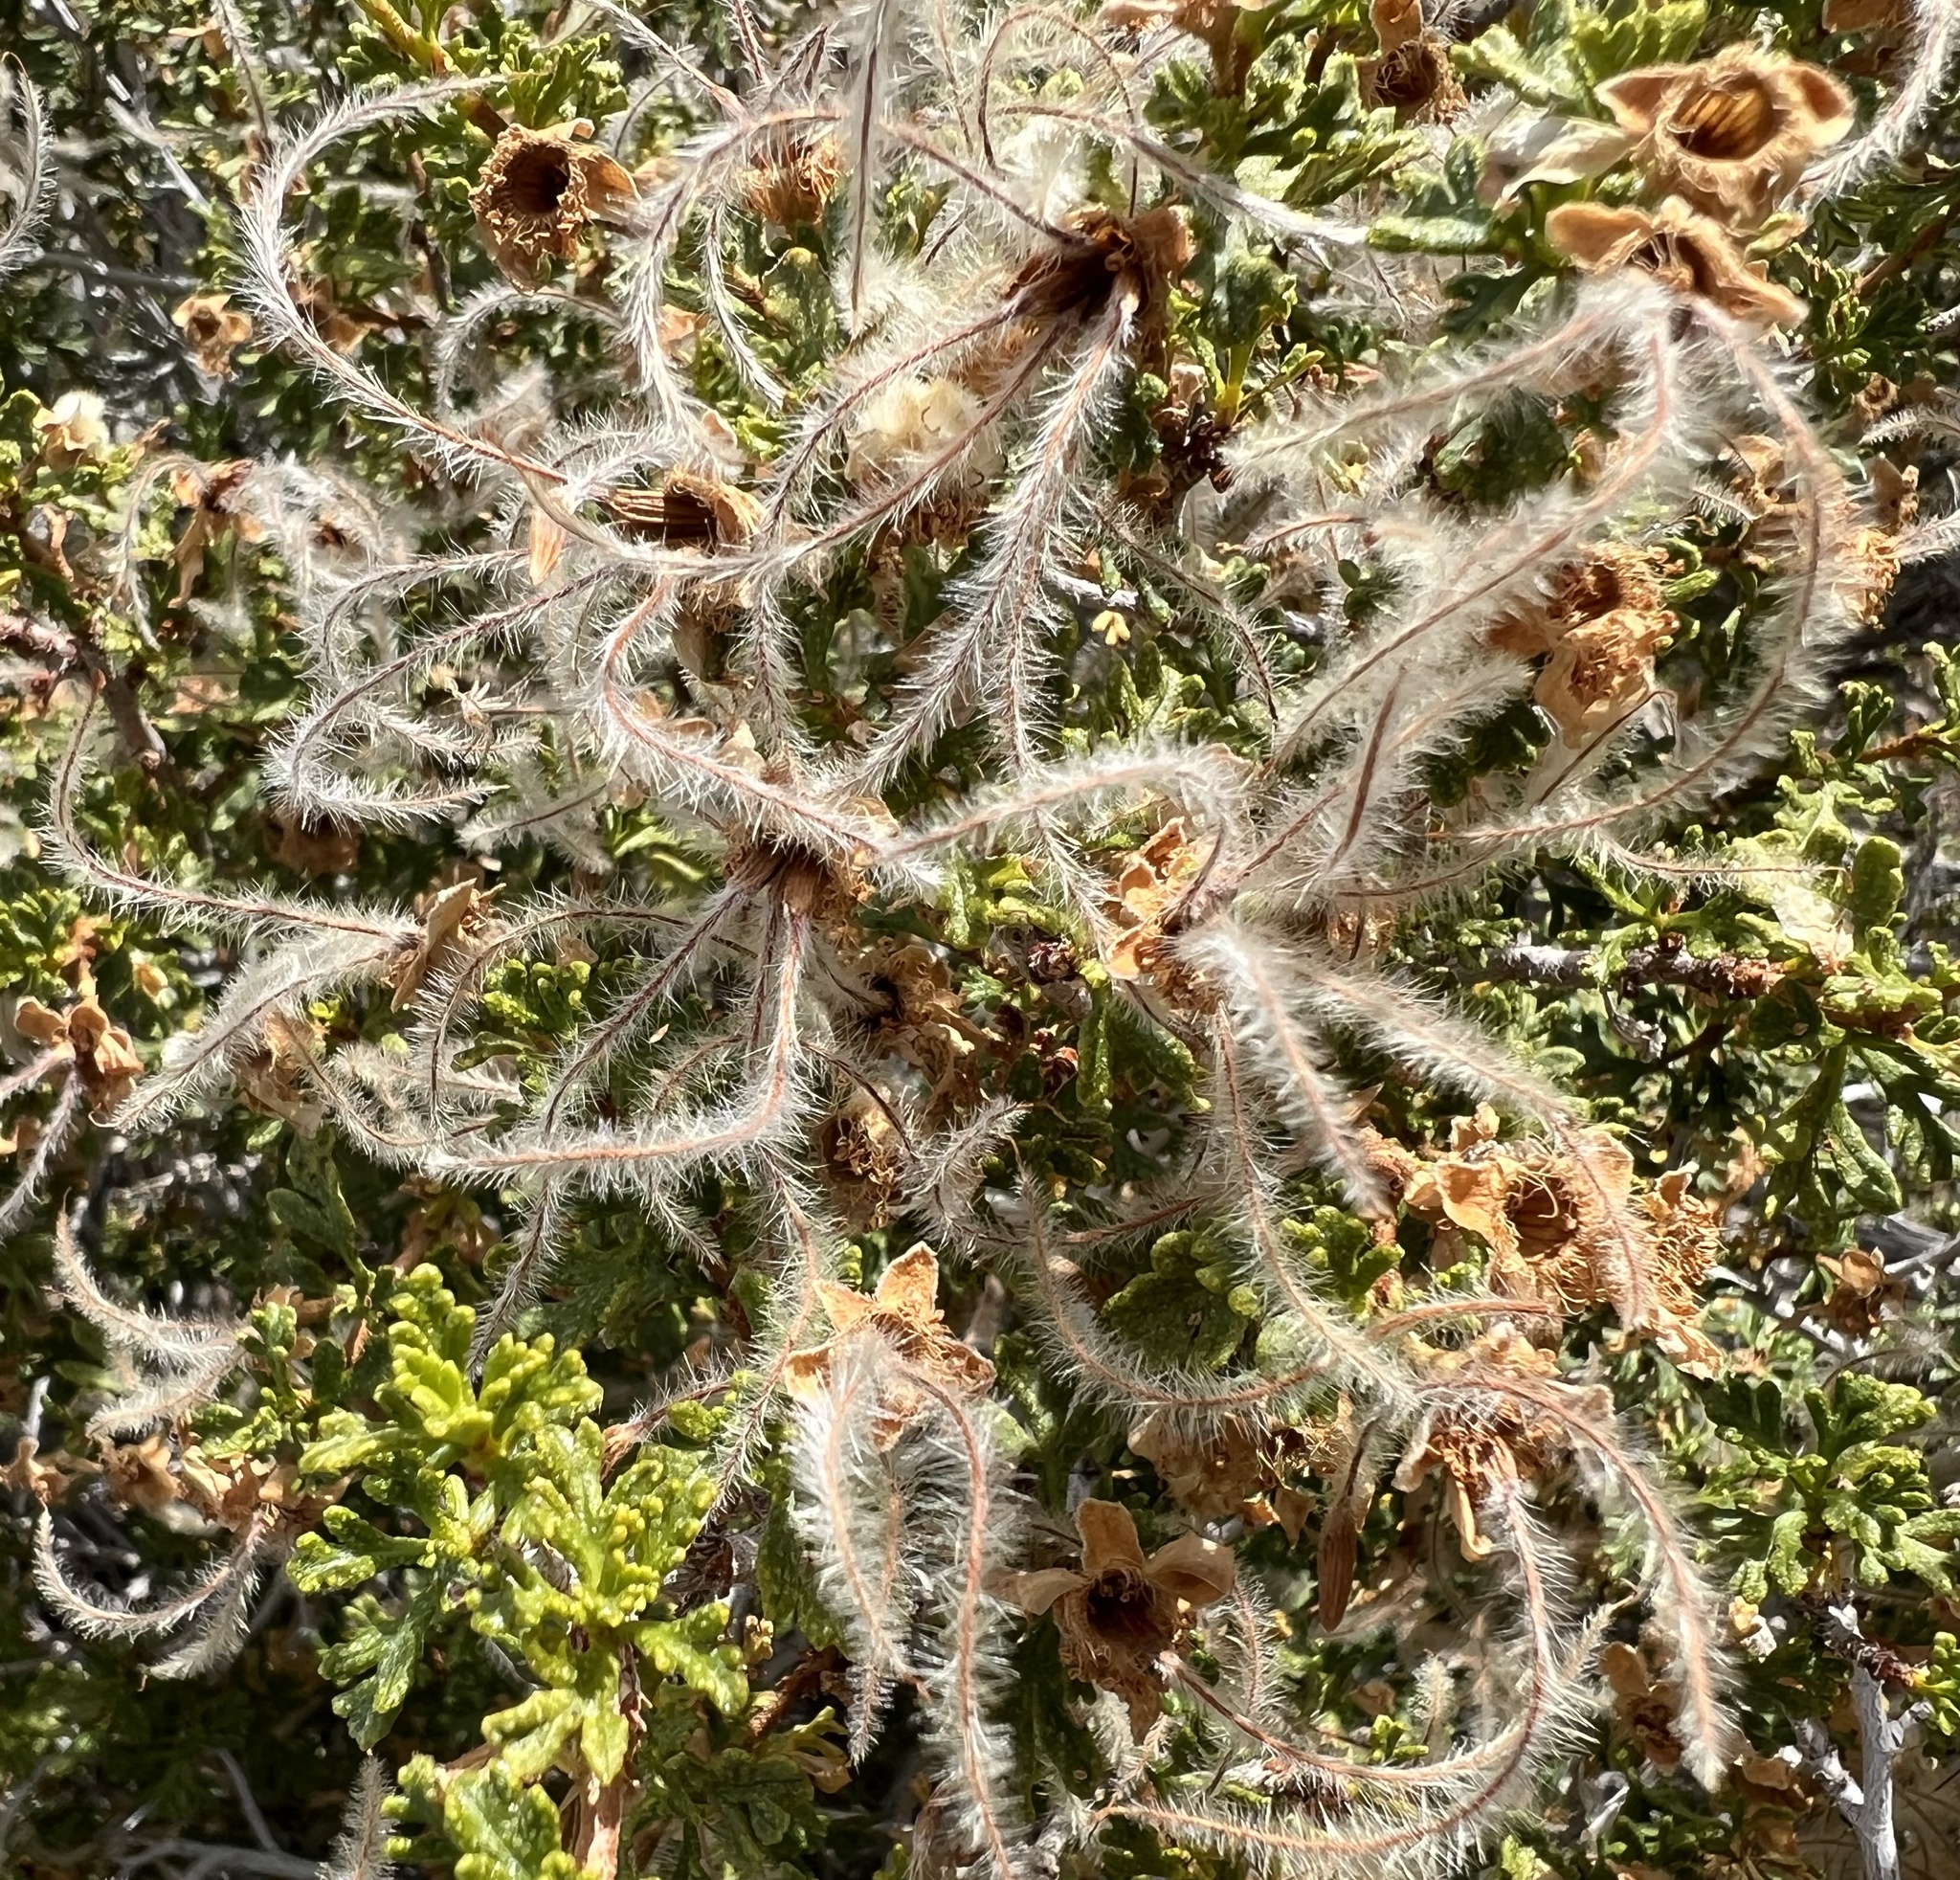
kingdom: Plantae
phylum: Tracheophyta
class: Magnoliopsida
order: Rosales
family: Rosaceae
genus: Purshia
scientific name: Purshia stansburiana
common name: Stansbury's cliffrose
